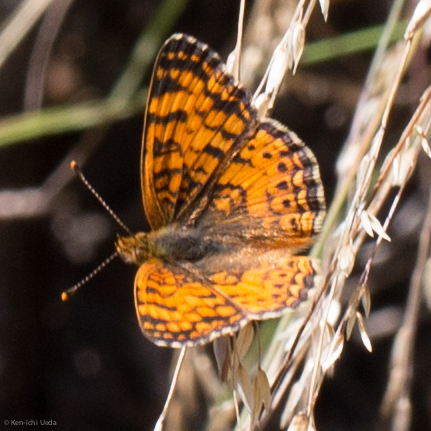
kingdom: Animalia
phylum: Arthropoda
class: Insecta
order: Lepidoptera
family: Nymphalidae
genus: Eresia
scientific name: Eresia aveyrona
